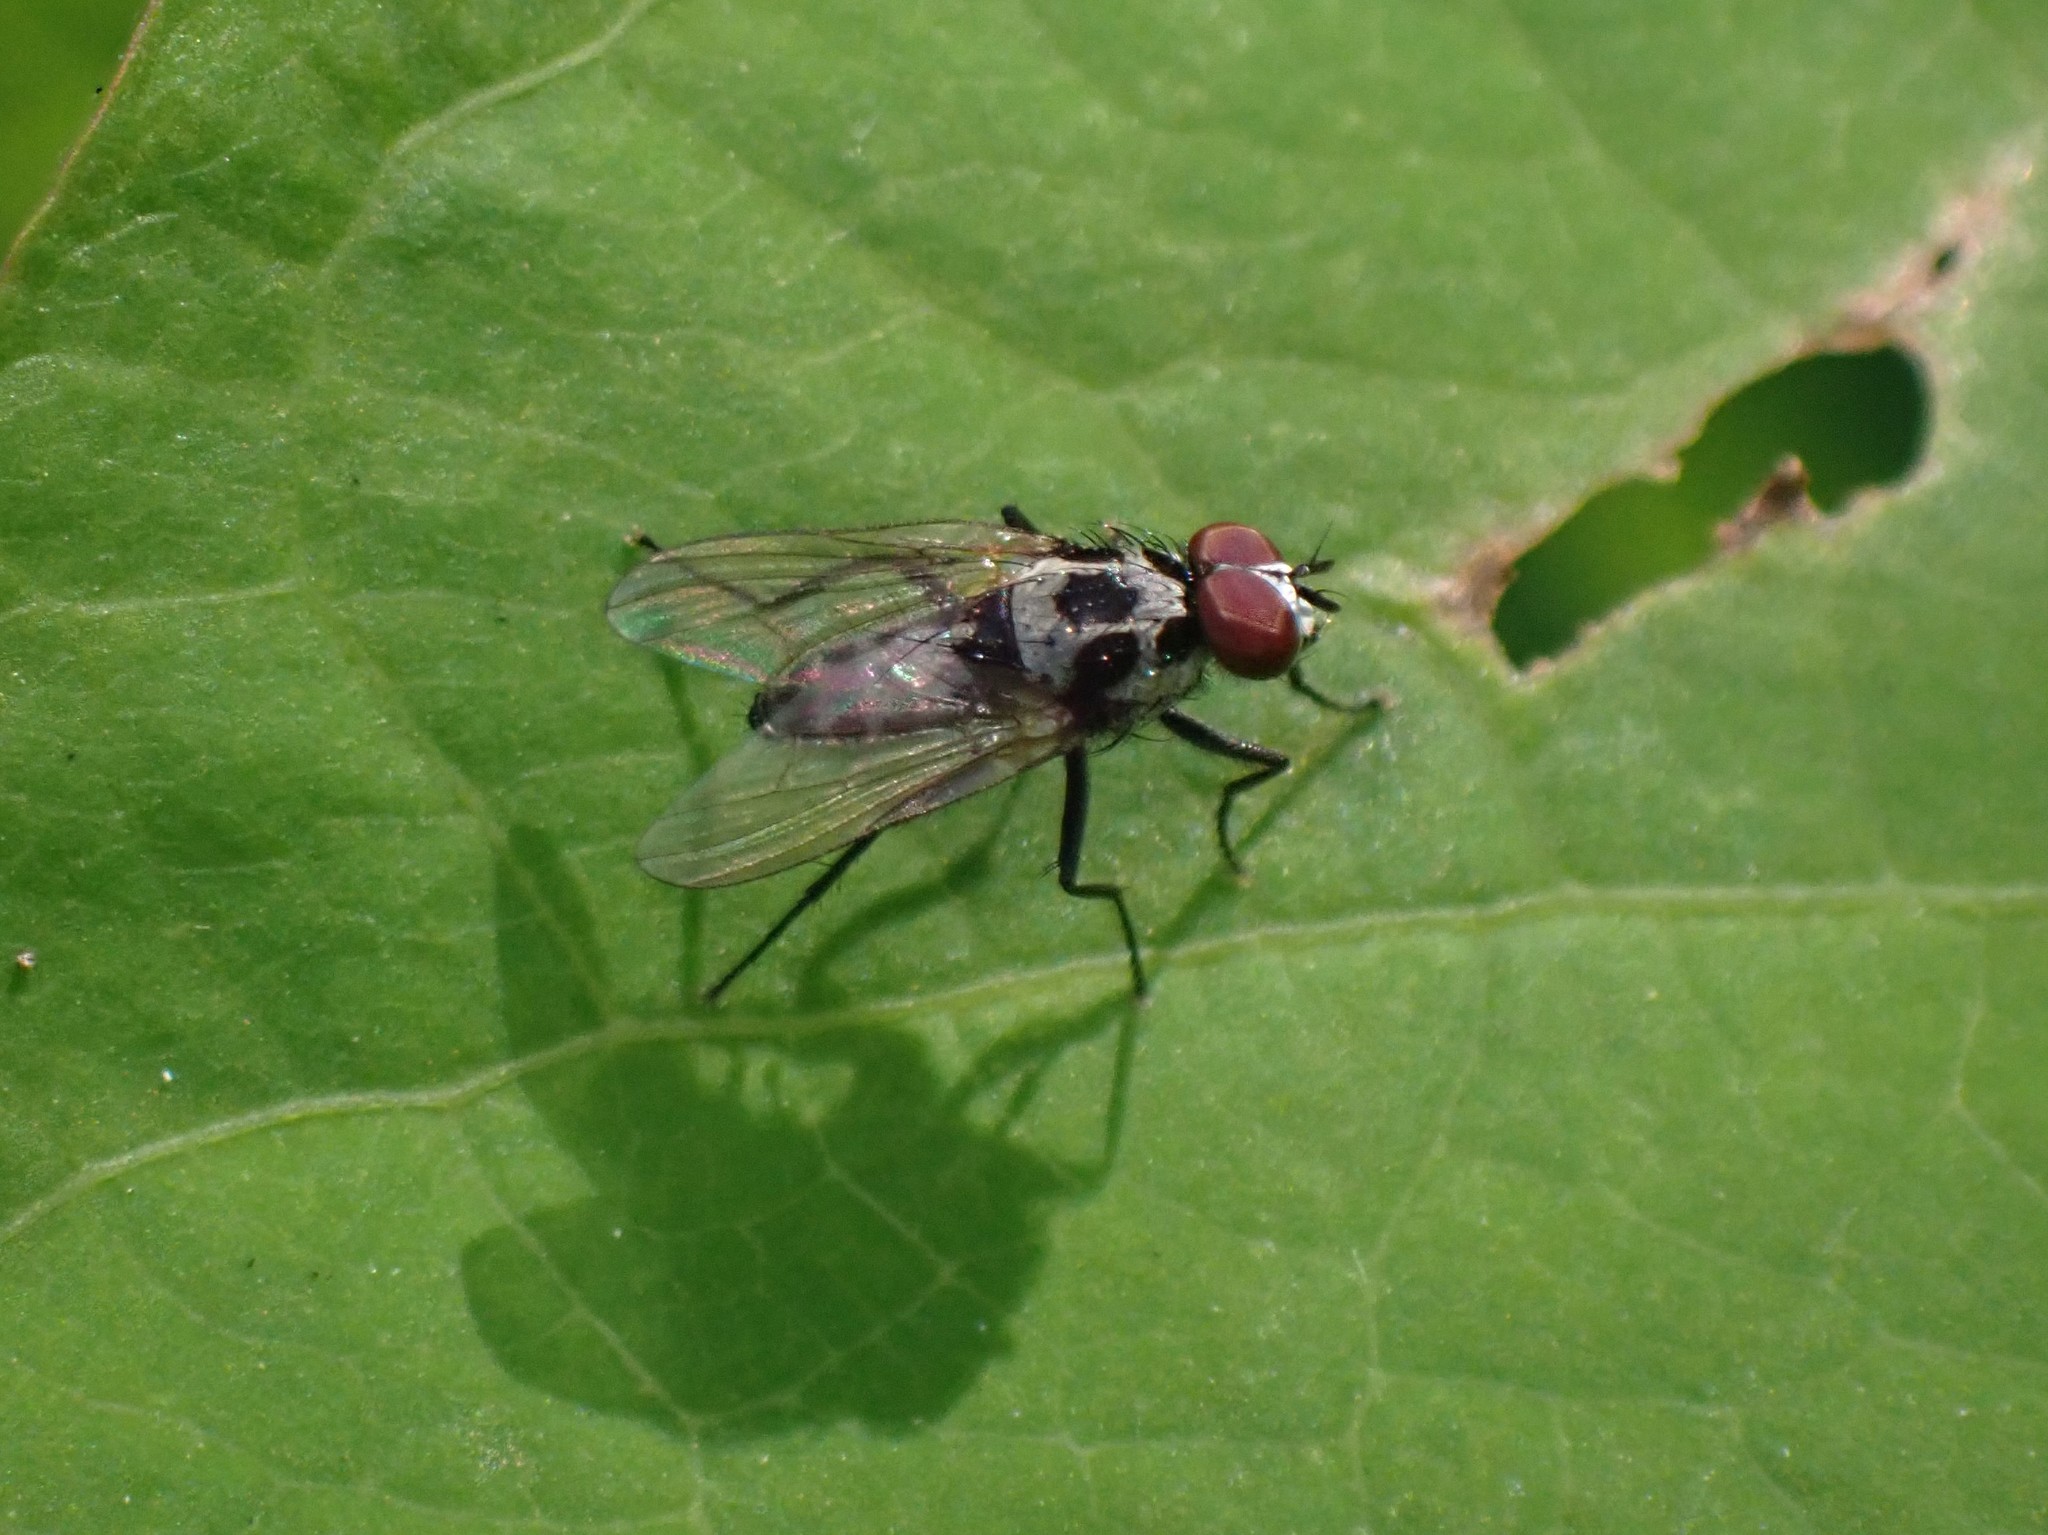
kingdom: Animalia
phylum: Arthropoda
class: Insecta
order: Diptera
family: Anthomyiidae
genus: Anthomyia
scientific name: Anthomyia procellaris
